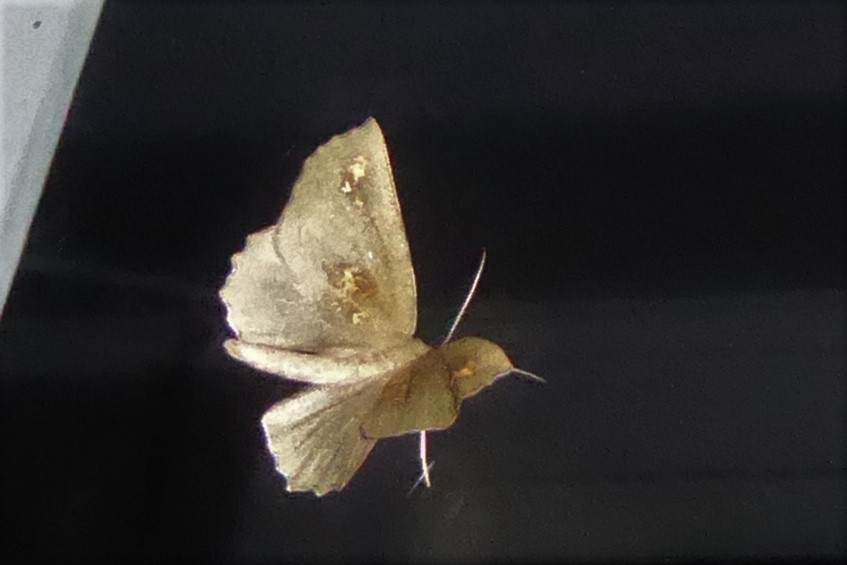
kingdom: Animalia
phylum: Arthropoda
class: Insecta
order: Lepidoptera
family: Geometridae
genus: Xyridacma
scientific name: Xyridacma ustaria
